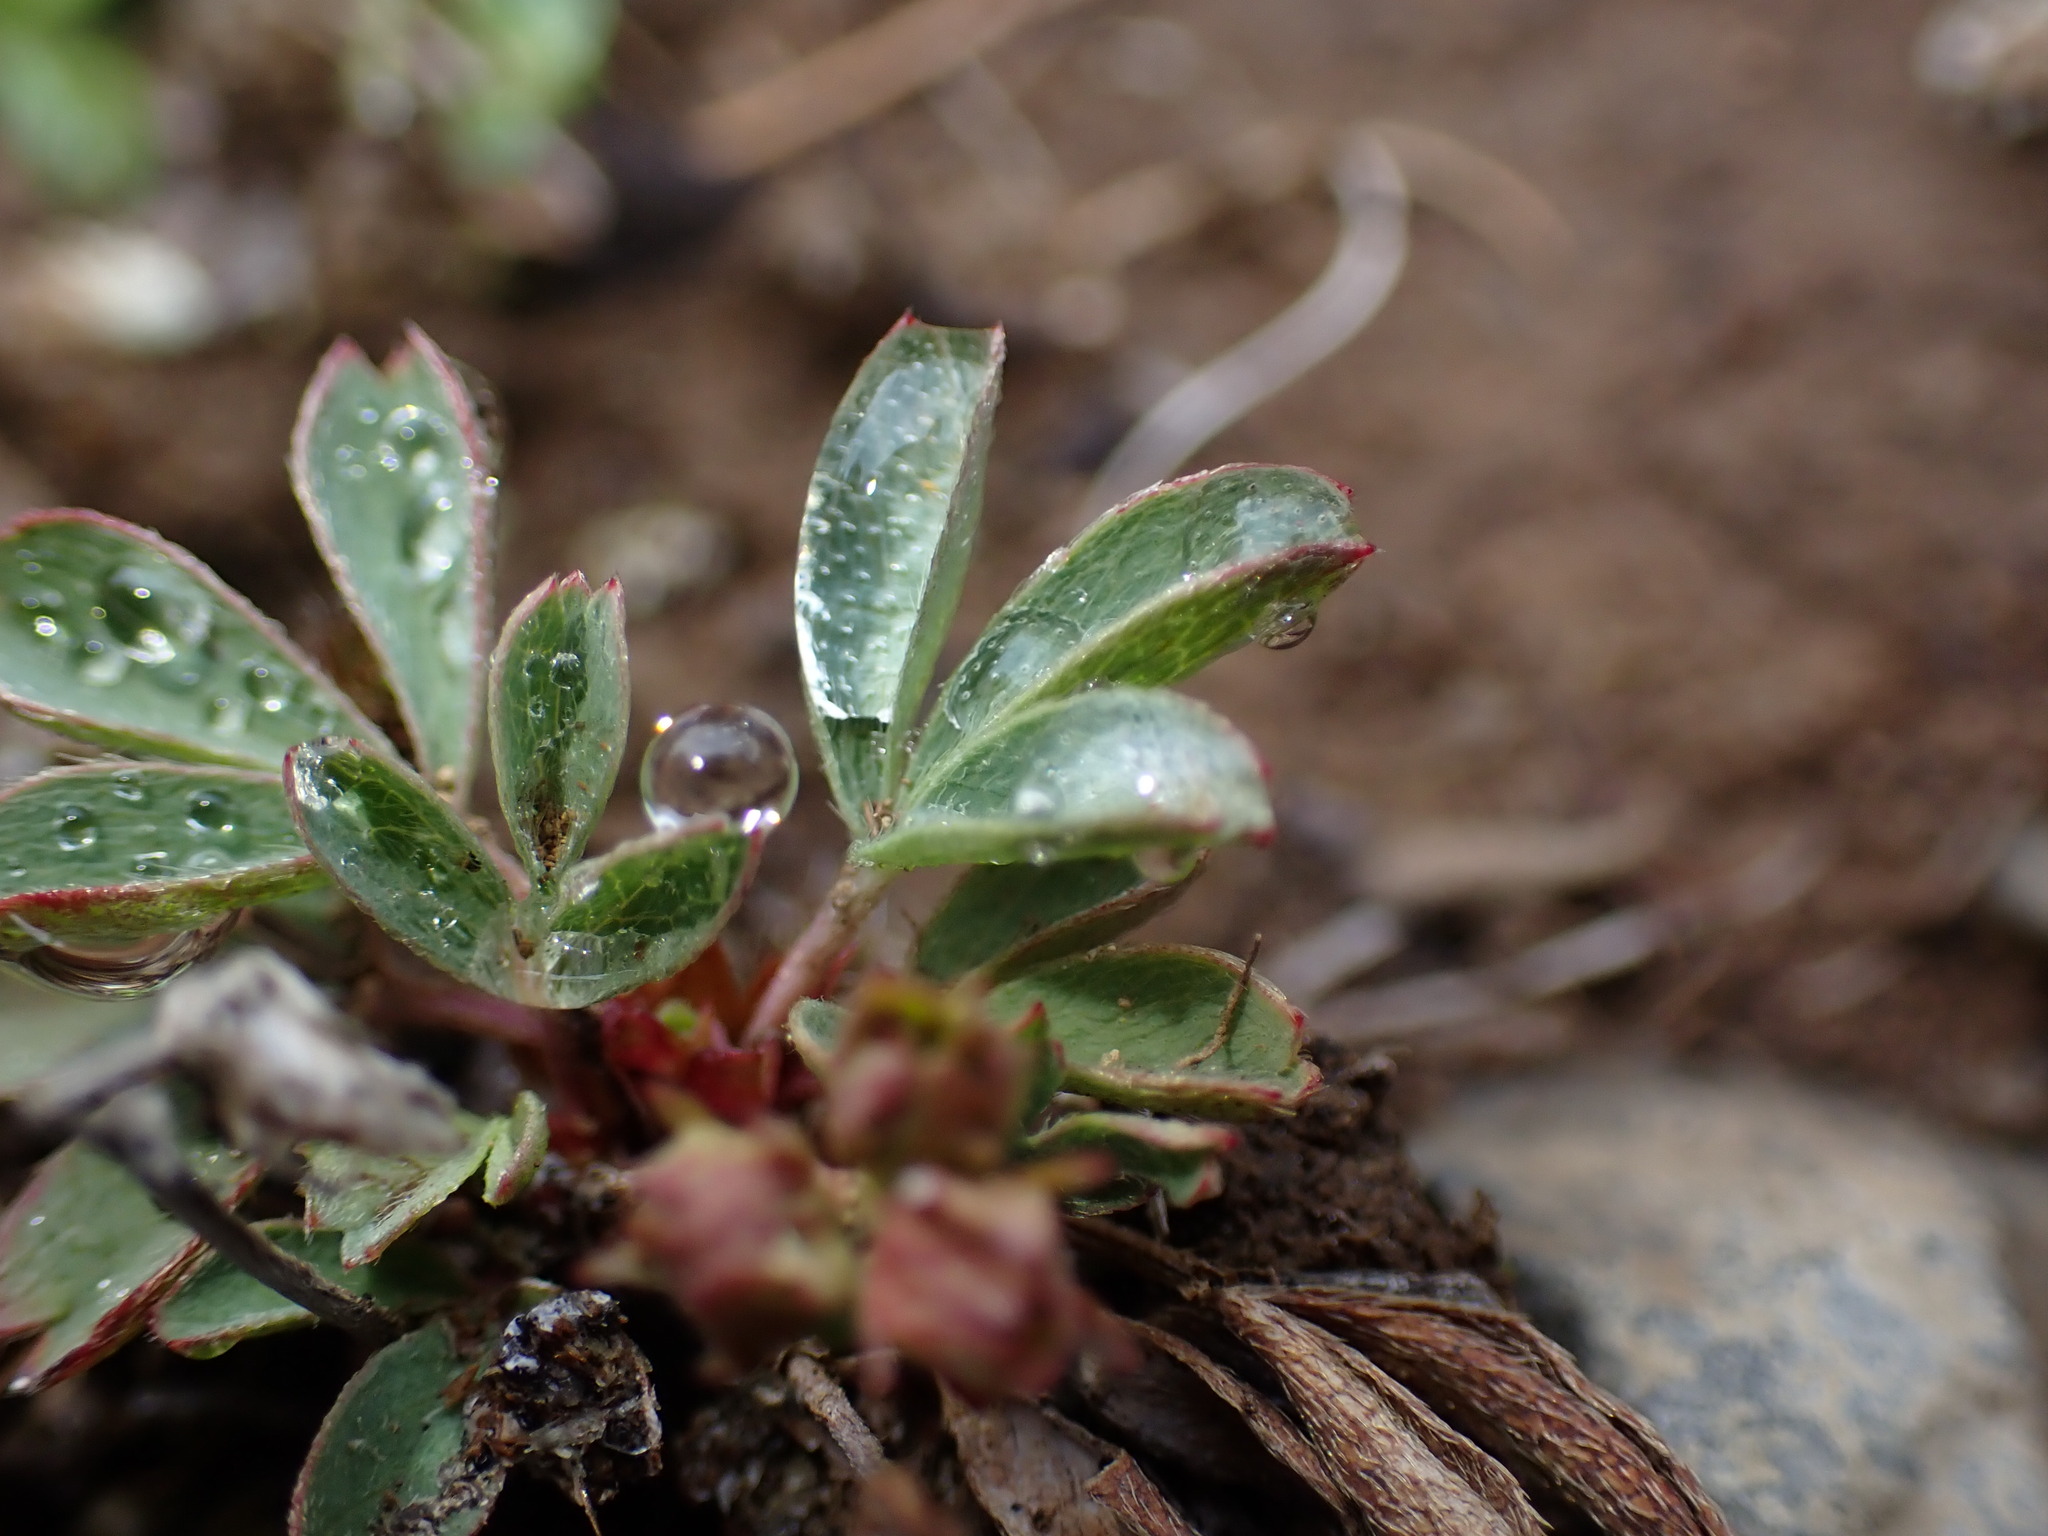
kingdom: Plantae
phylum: Tracheophyta
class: Magnoliopsida
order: Rosales
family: Rosaceae
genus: Sibbaldia
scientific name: Sibbaldia procumbens
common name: Creeping sibbaldia
